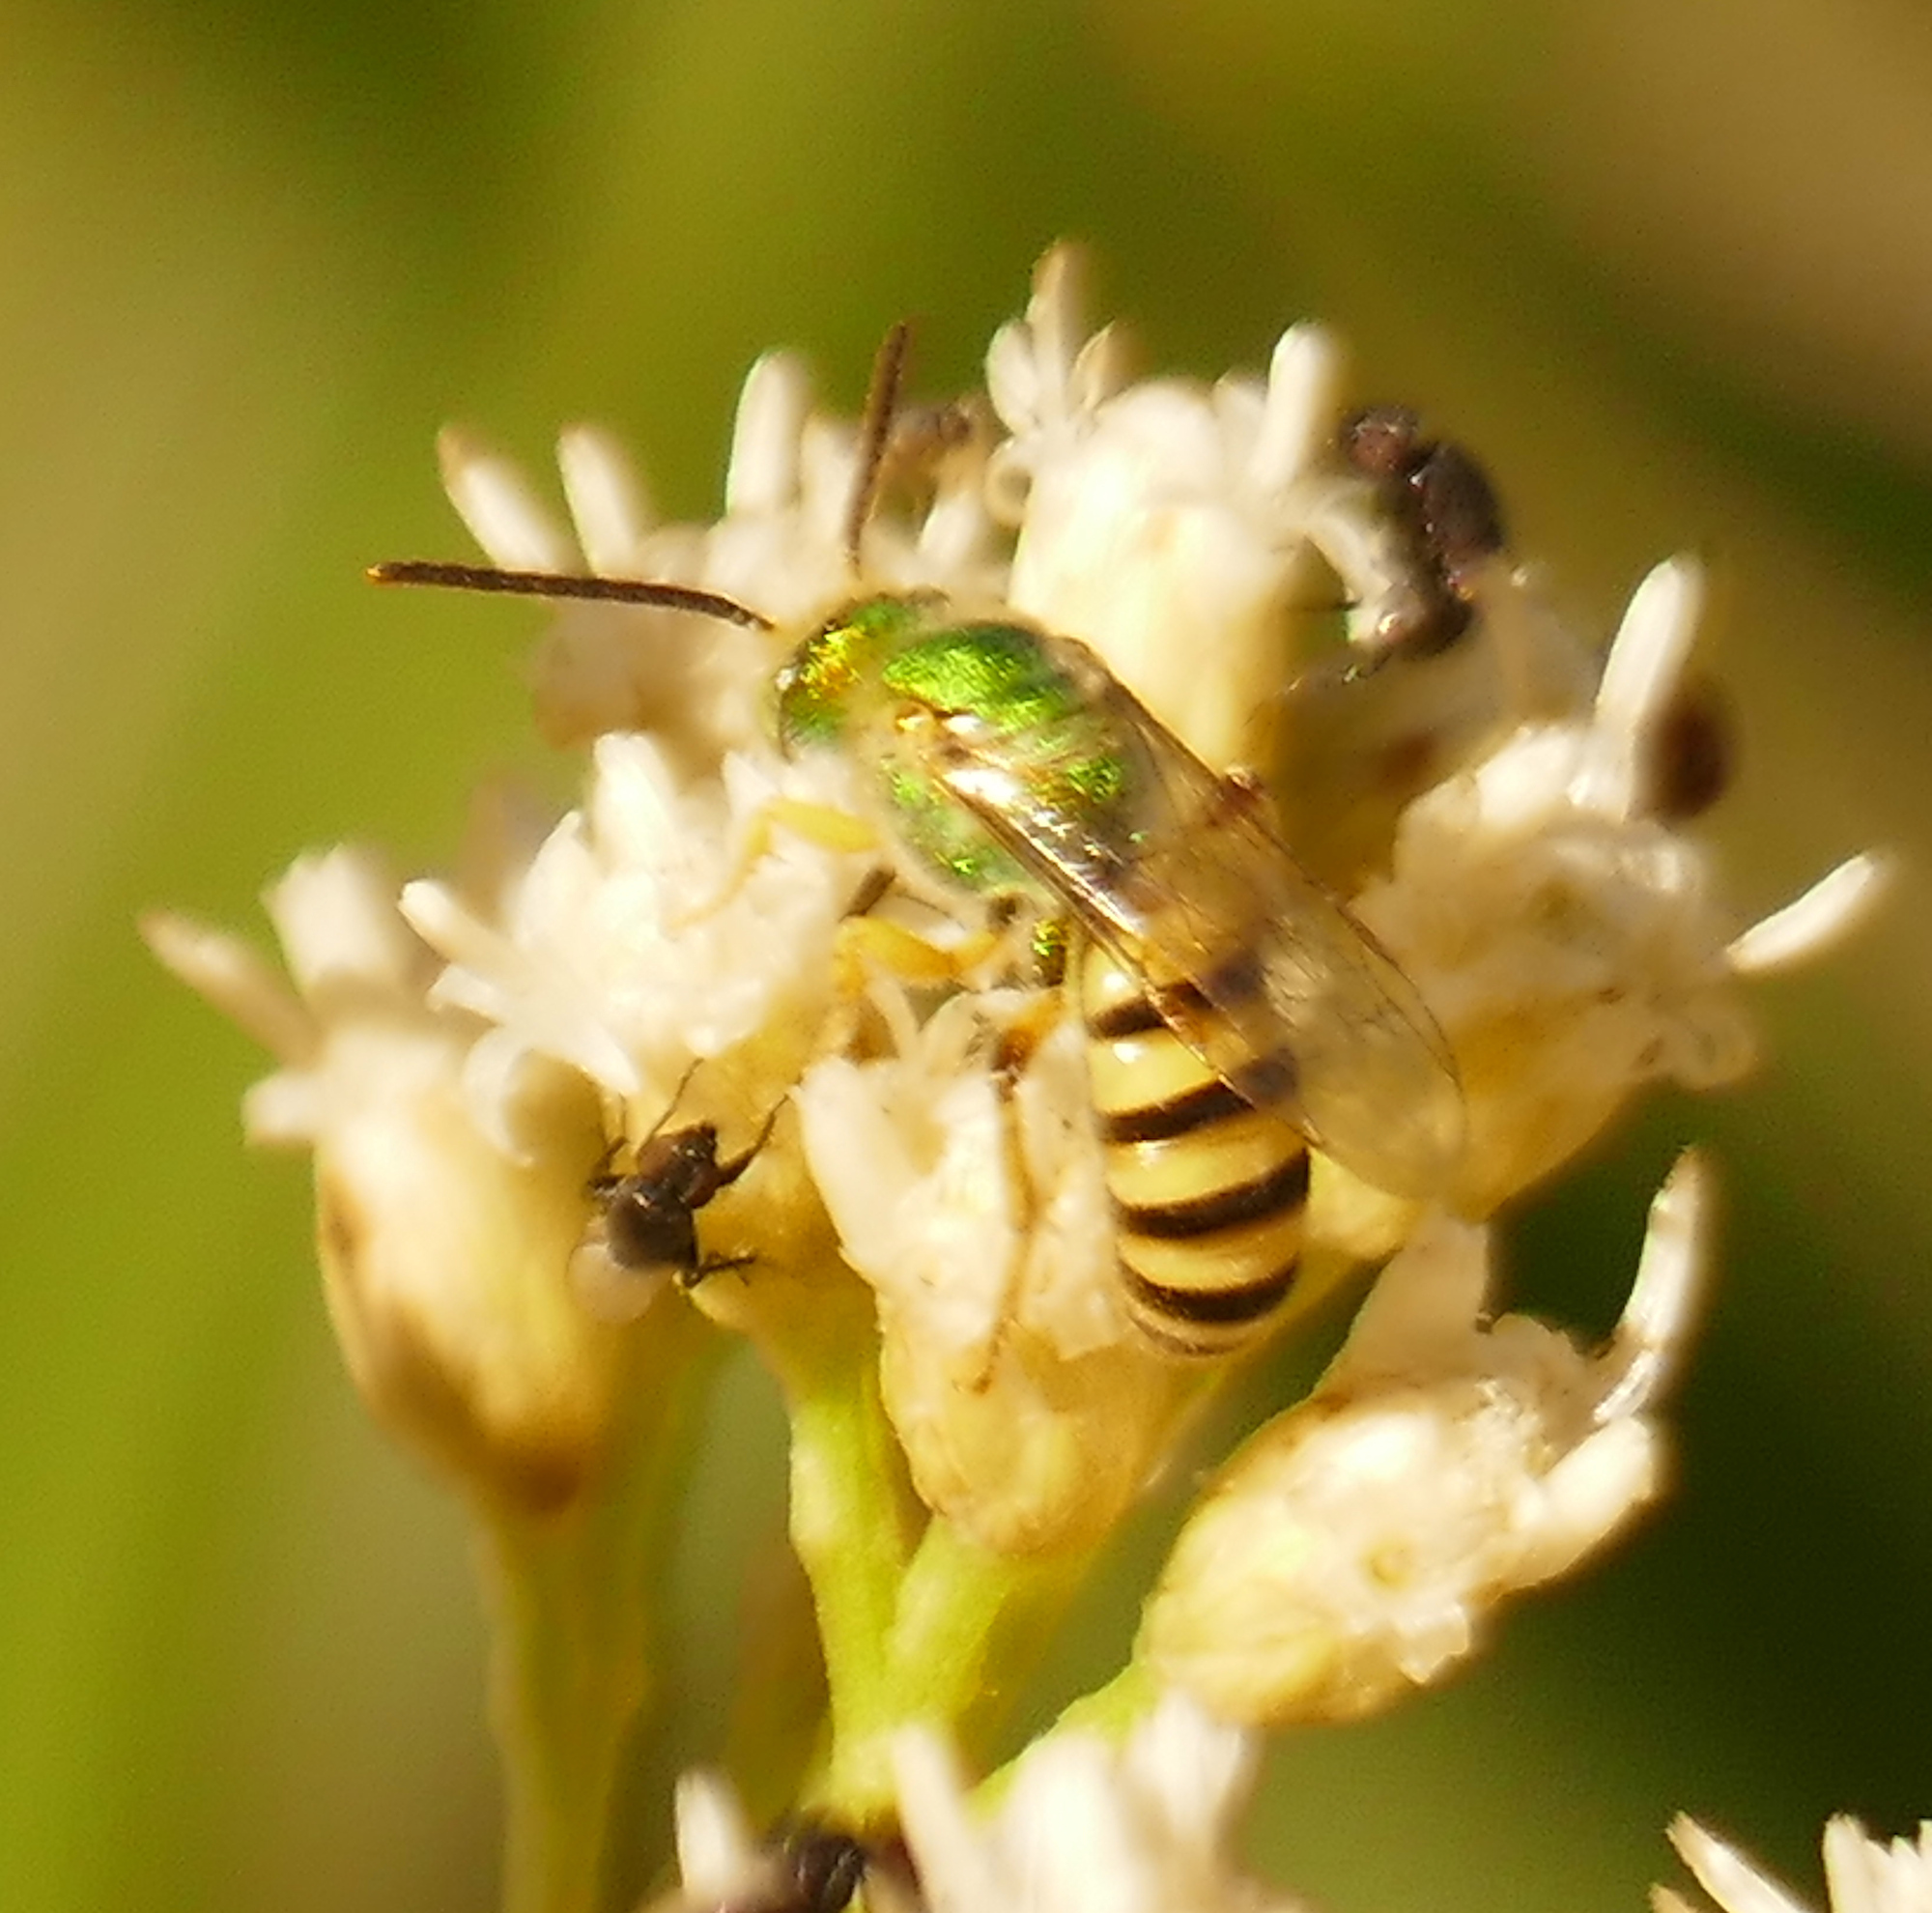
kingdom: Animalia
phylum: Arthropoda
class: Insecta
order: Hymenoptera
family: Halictidae
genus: Agapostemon
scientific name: Agapostemon melliventris
